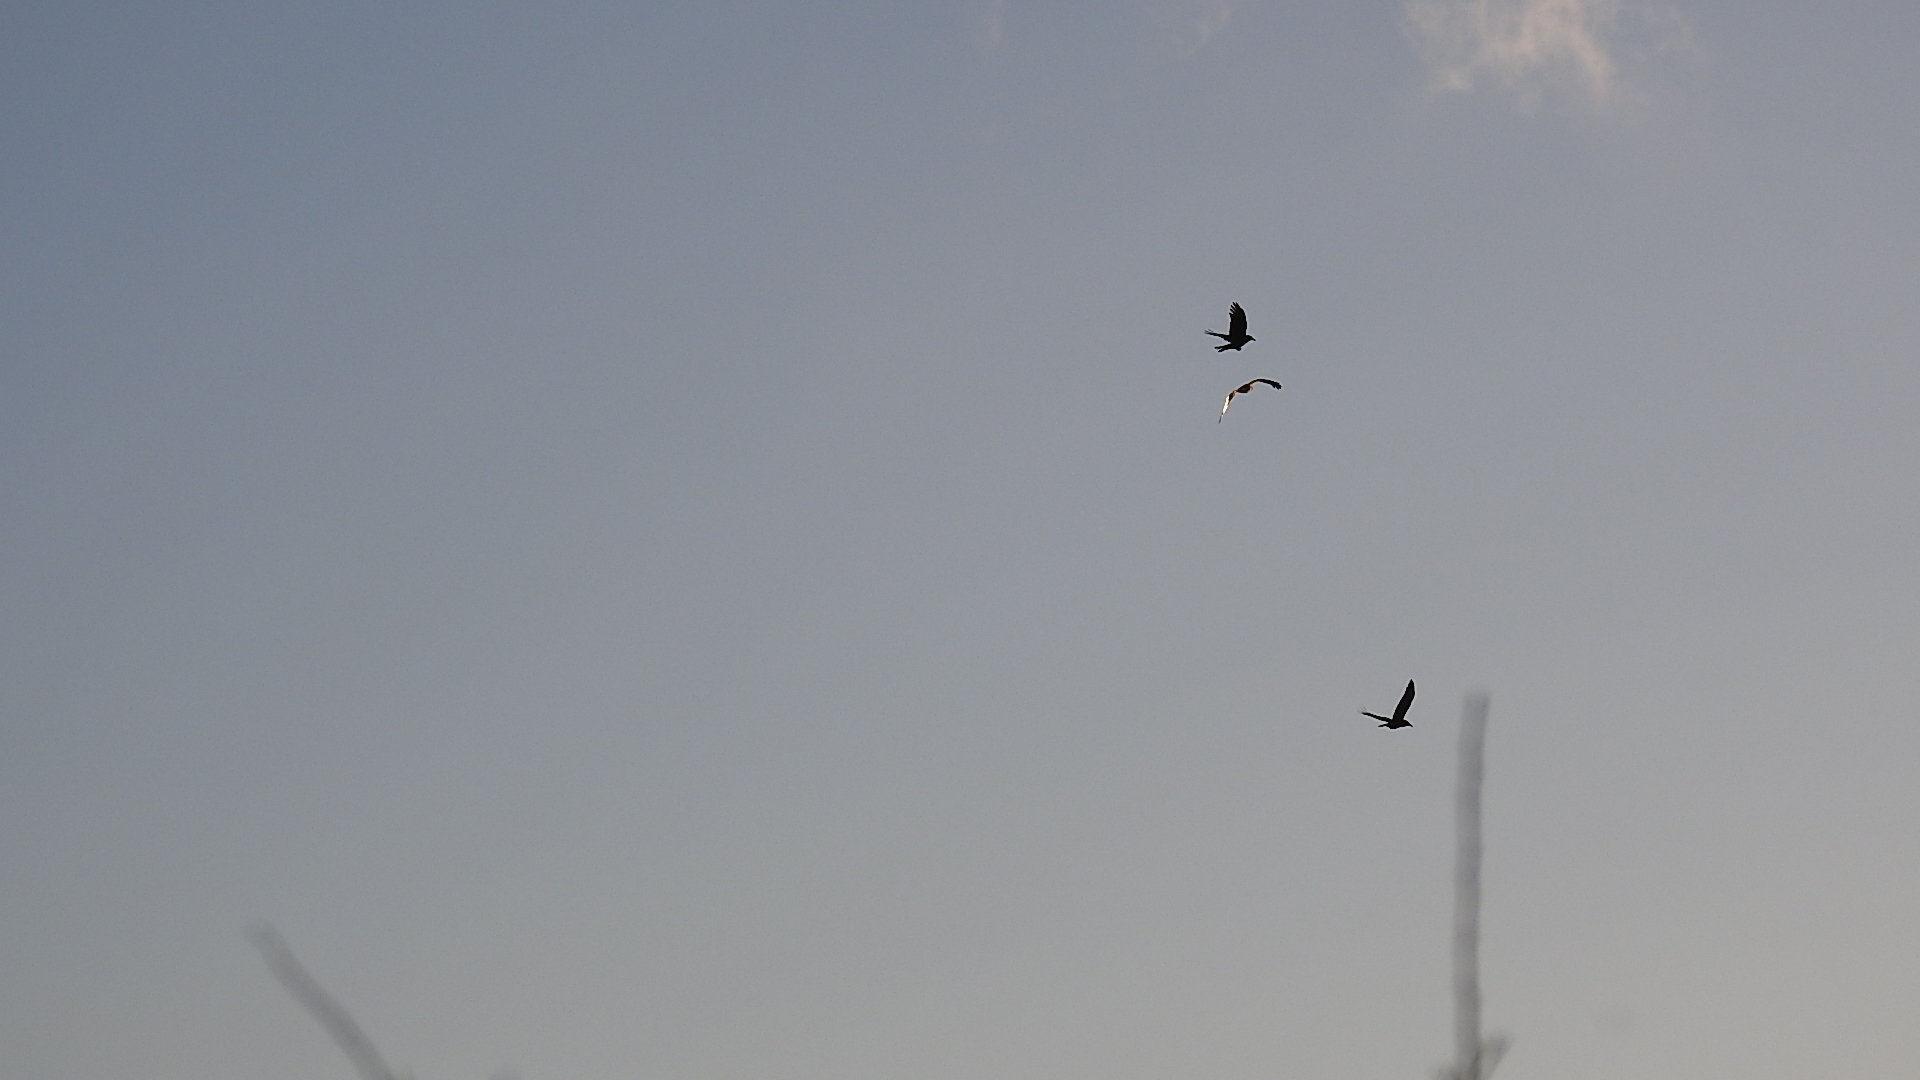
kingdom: Animalia
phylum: Chordata
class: Aves
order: Accipitriformes
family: Accipitridae
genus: Buteo
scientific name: Buteo jamaicensis
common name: Red-tailed hawk
